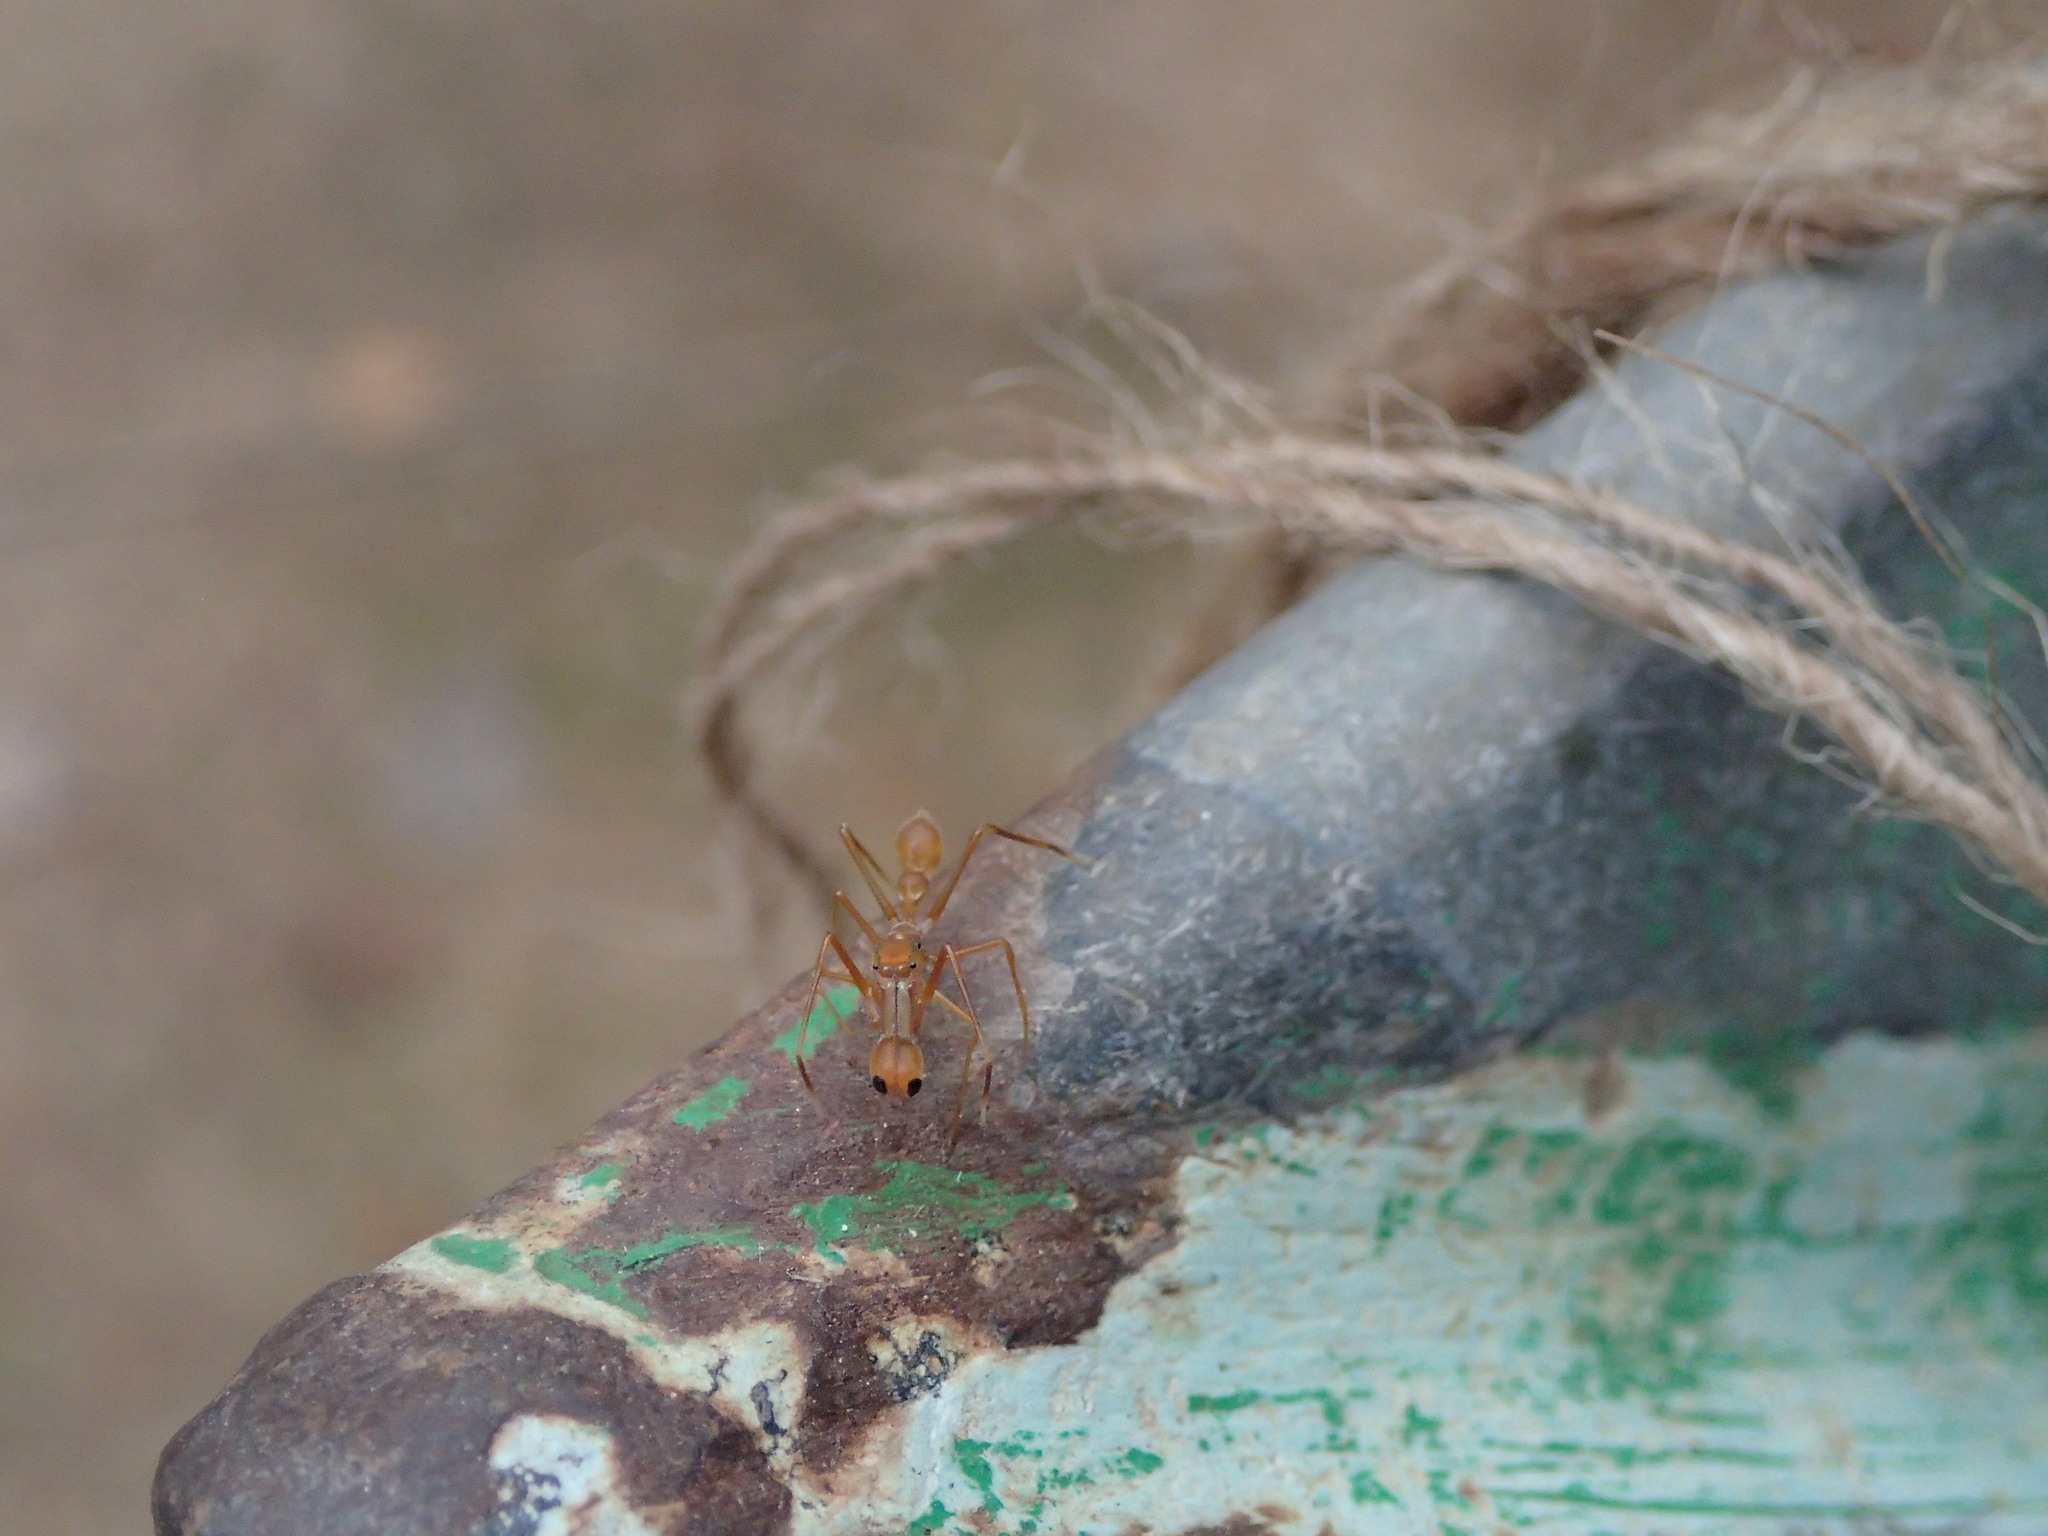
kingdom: Animalia
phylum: Arthropoda
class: Arachnida
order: Araneae
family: Salticidae
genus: Myrmaplata
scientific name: Myrmaplata plataleoides
